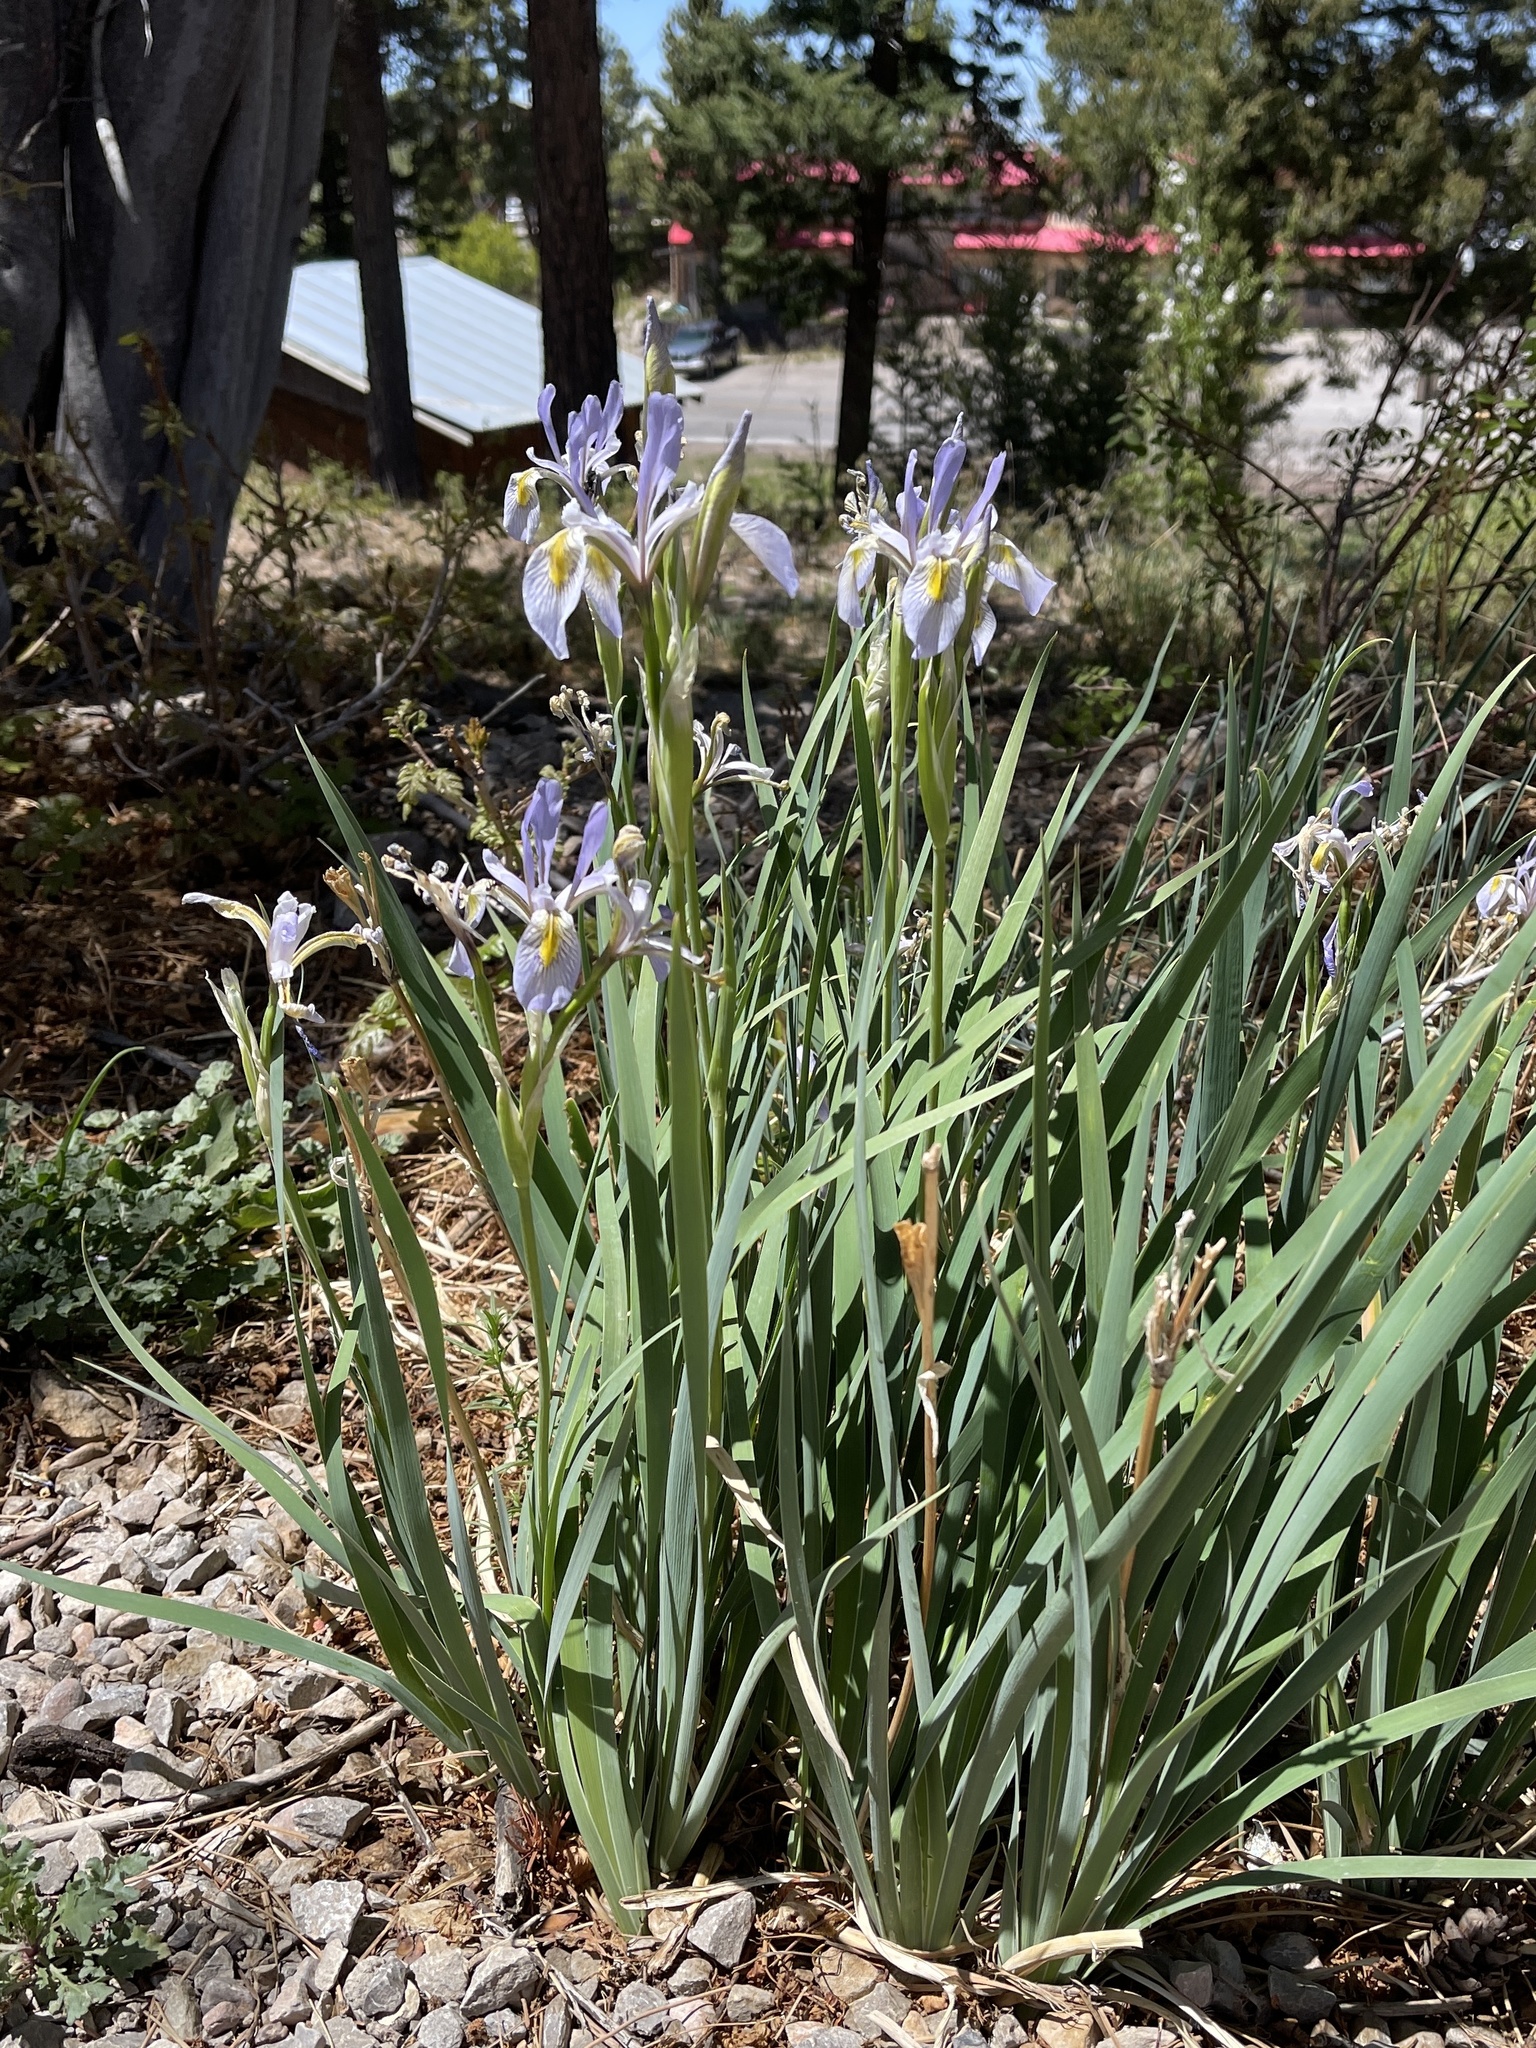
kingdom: Plantae
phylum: Tracheophyta
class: Liliopsida
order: Asparagales
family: Iridaceae
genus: Iris
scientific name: Iris missouriensis
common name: Rocky mountain iris
